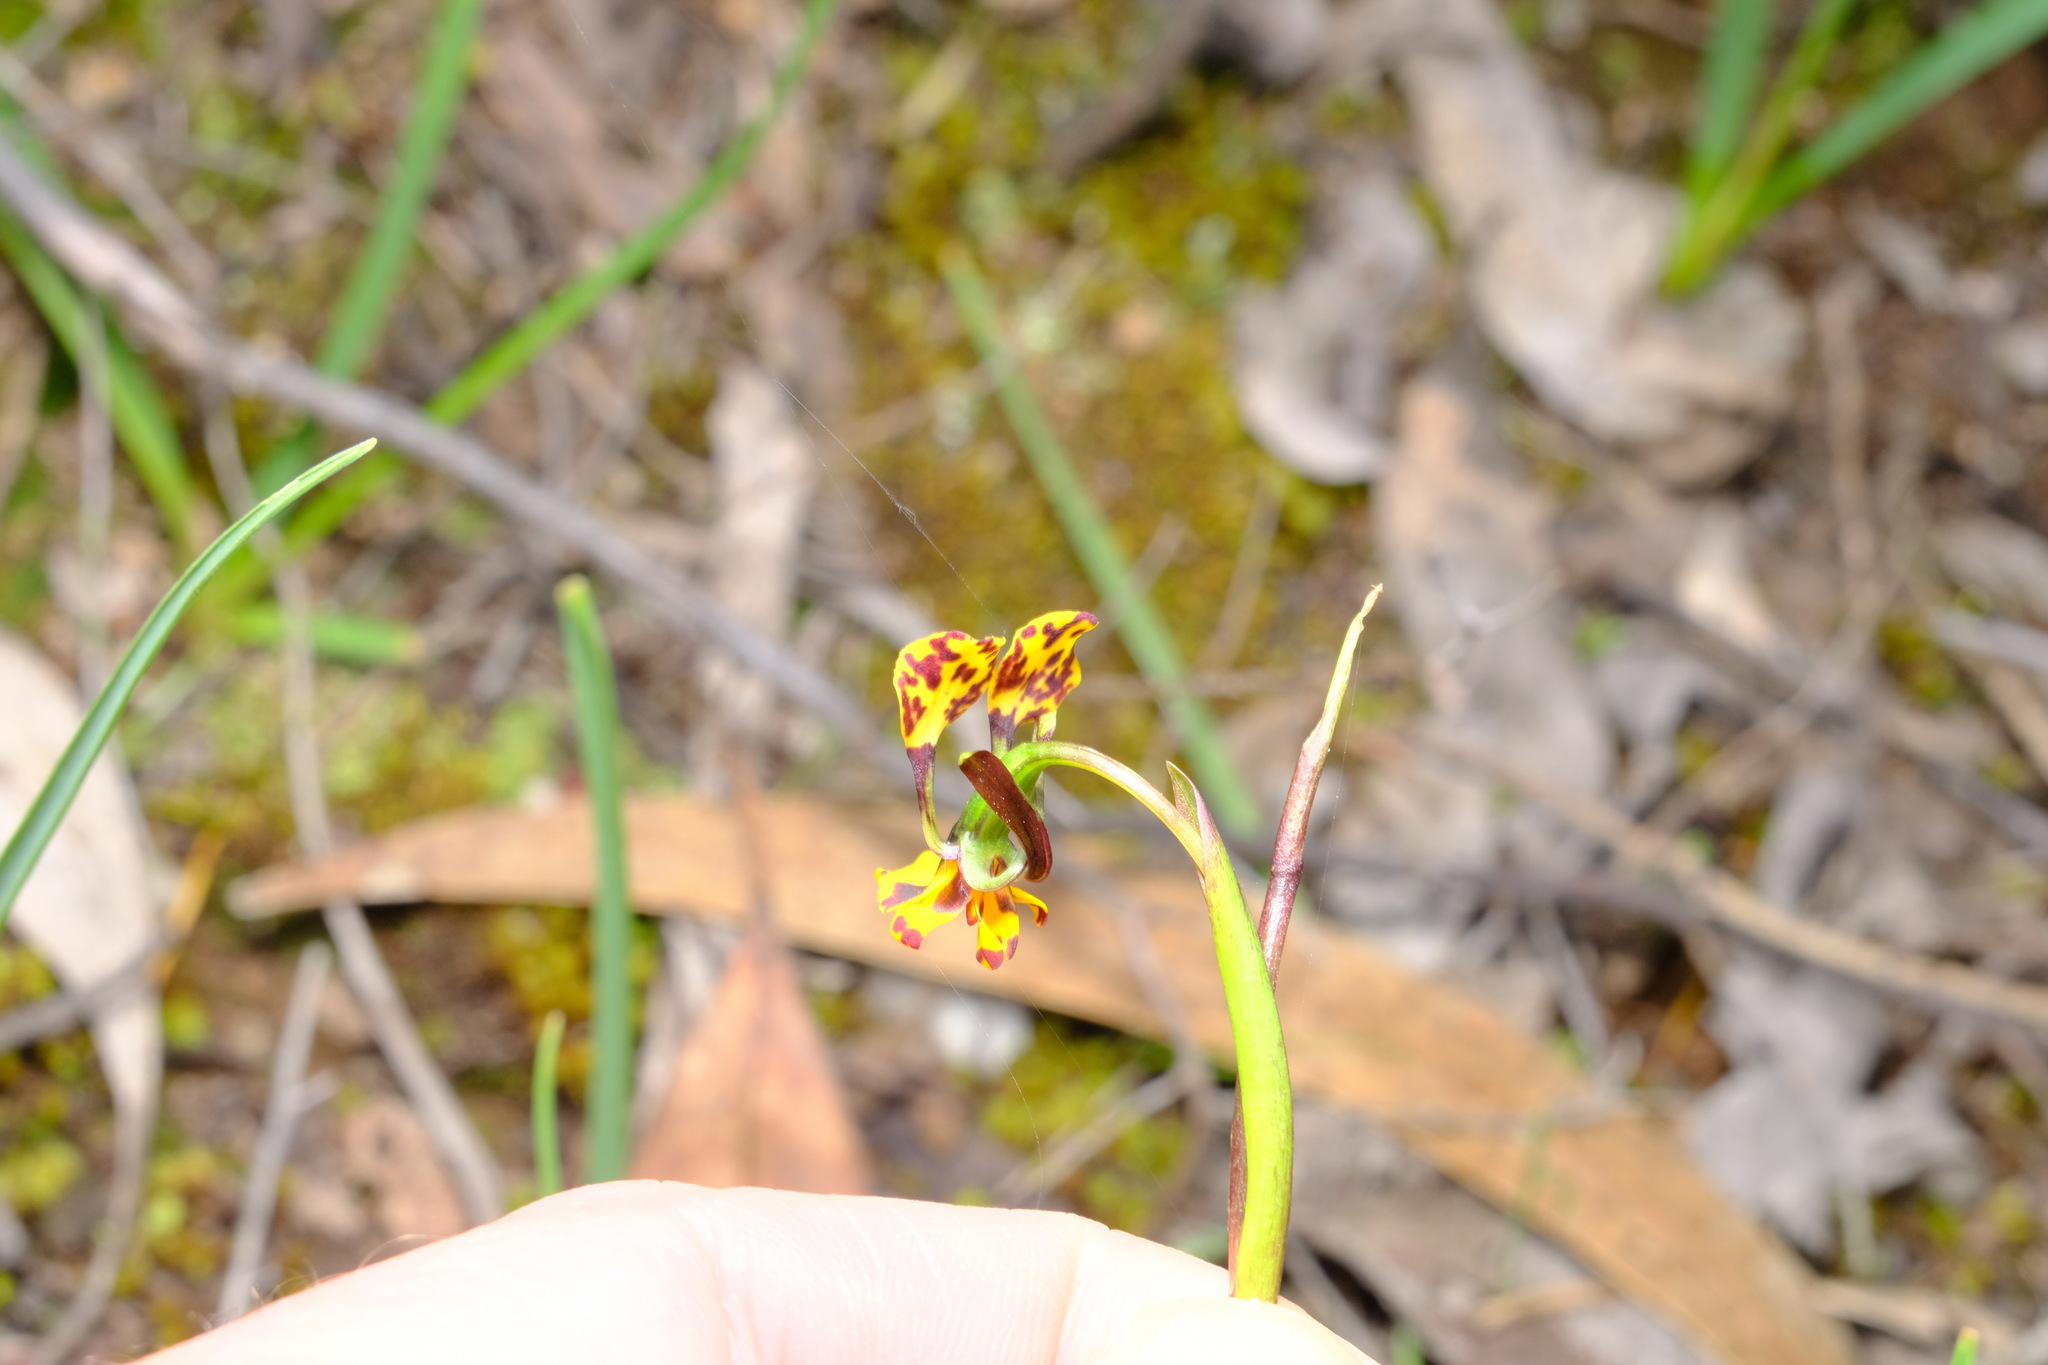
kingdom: Plantae
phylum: Tracheophyta
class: Liliopsida
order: Asparagales
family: Orchidaceae
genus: Diuris
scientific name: Diuris pardina
